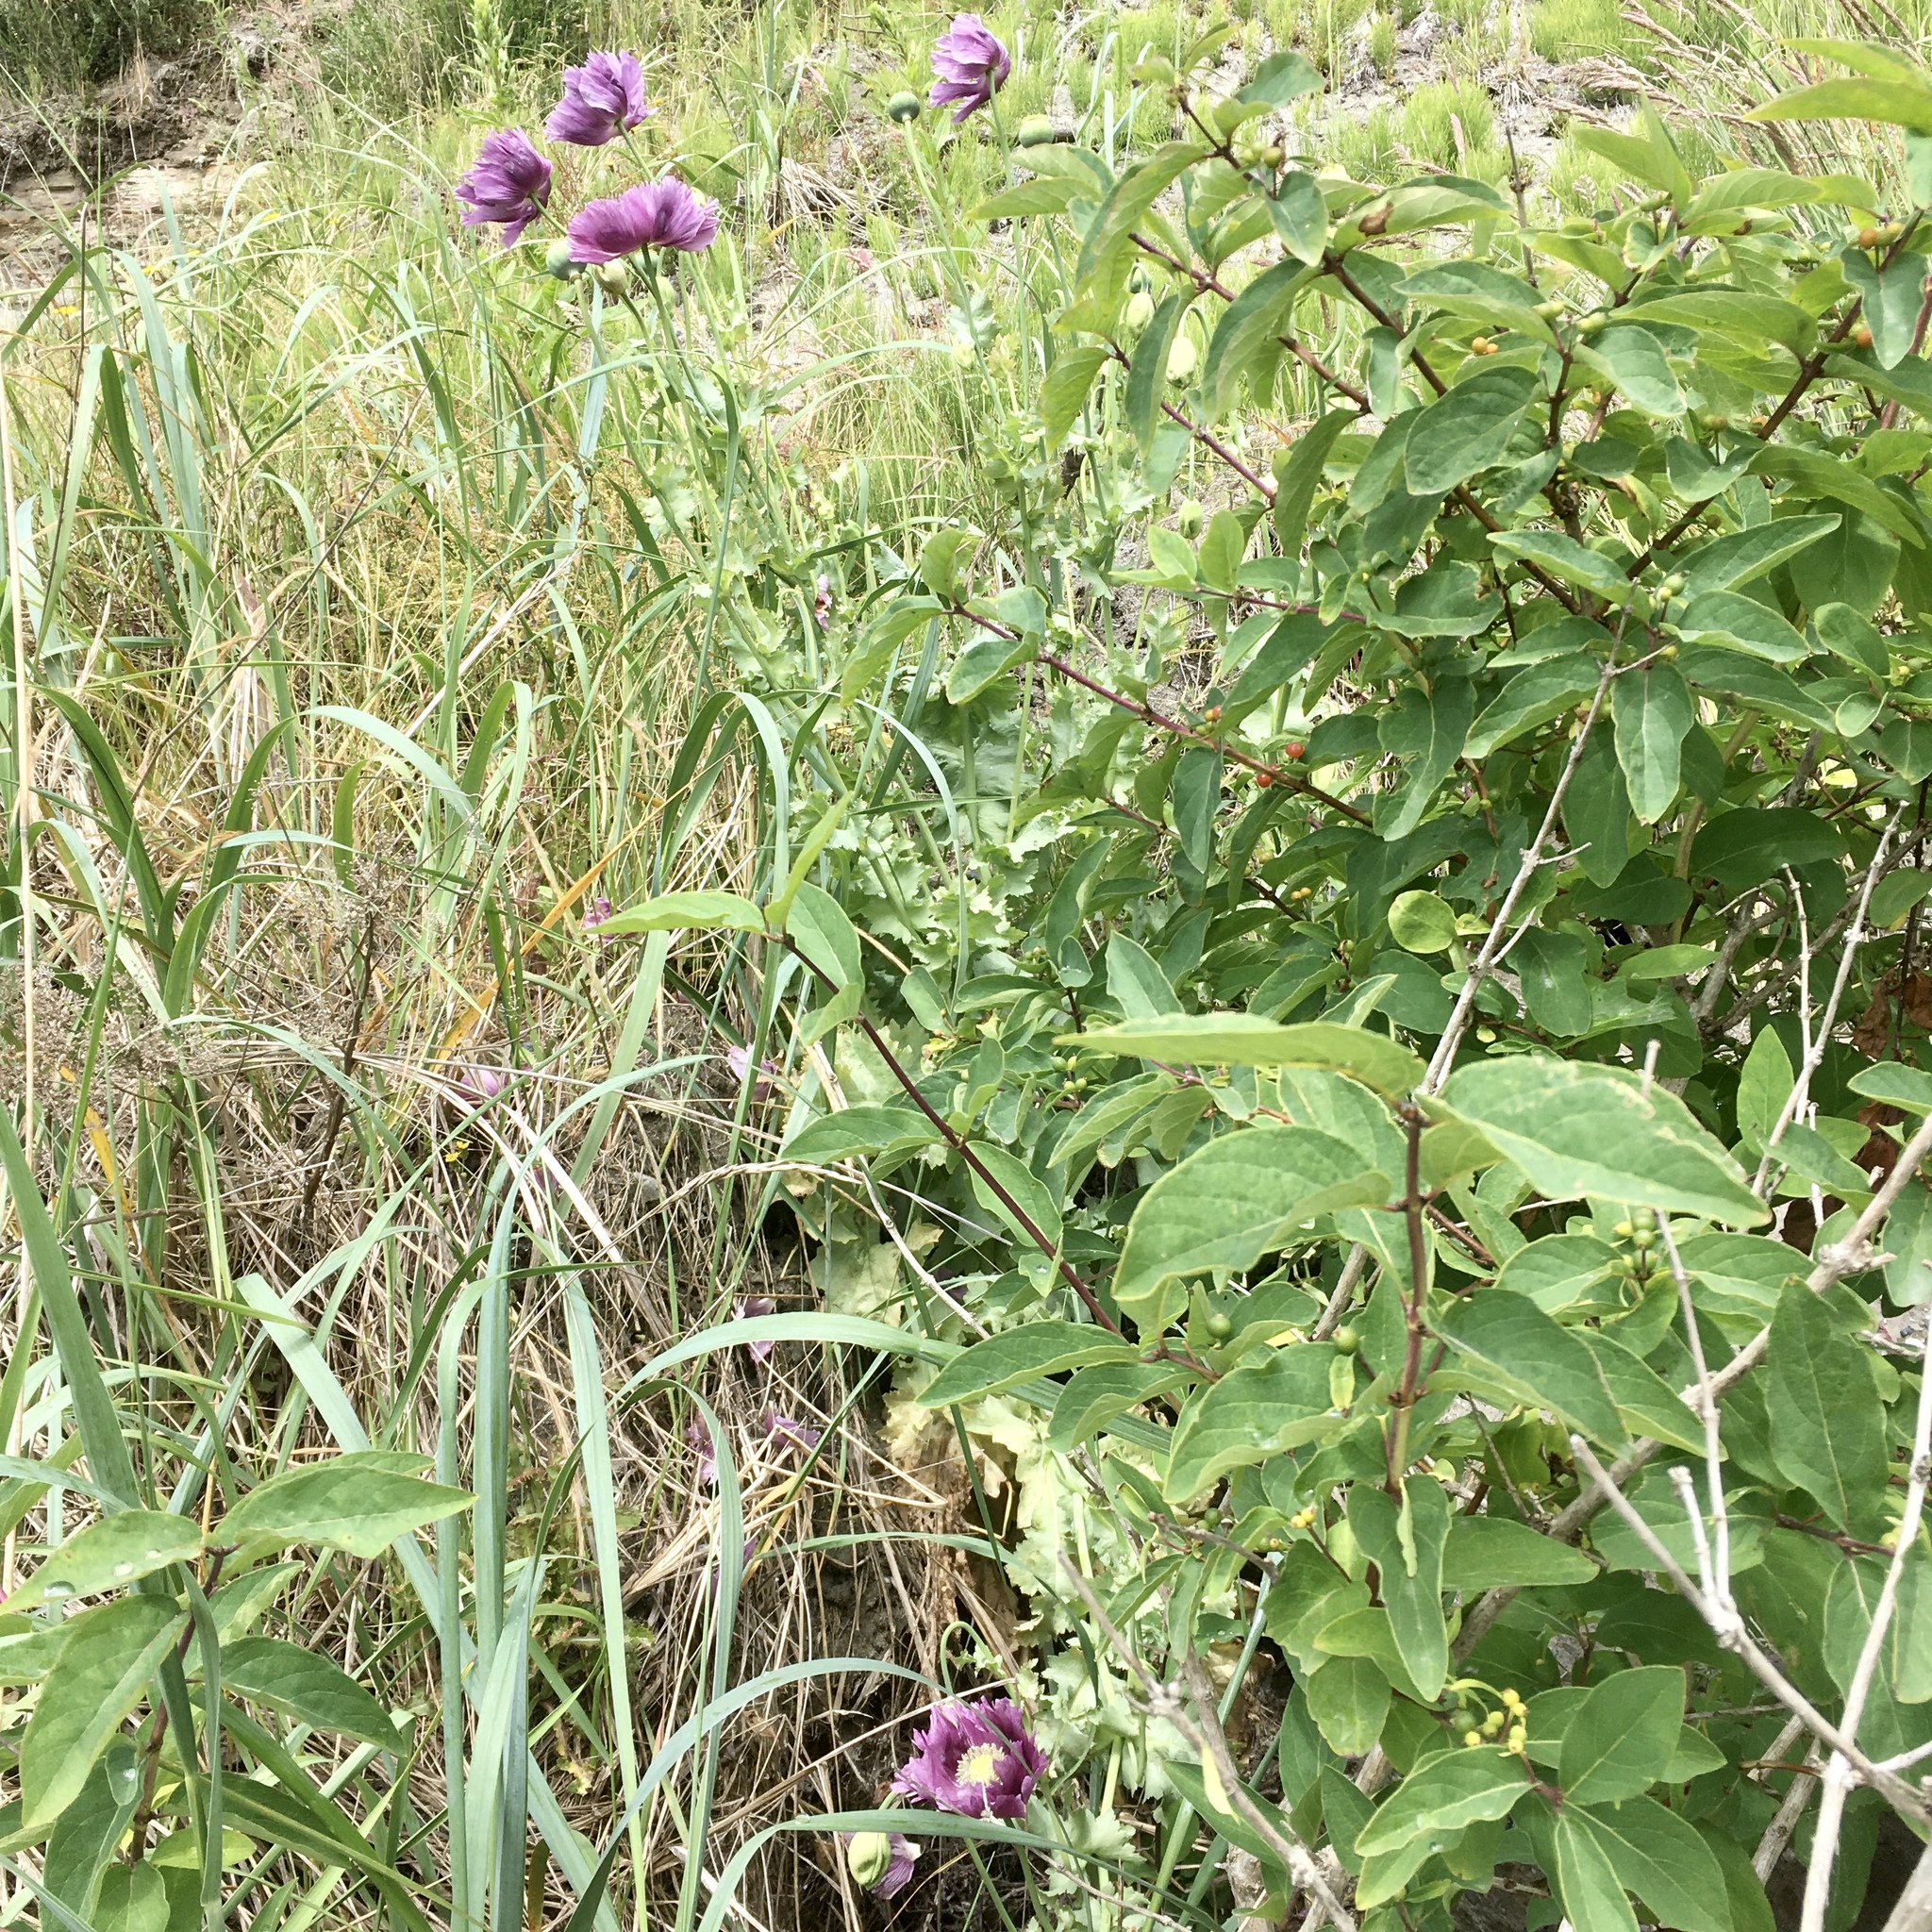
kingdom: Plantae
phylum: Tracheophyta
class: Magnoliopsida
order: Ranunculales
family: Papaveraceae
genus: Papaver
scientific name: Papaver somniferum
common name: Opium poppy
